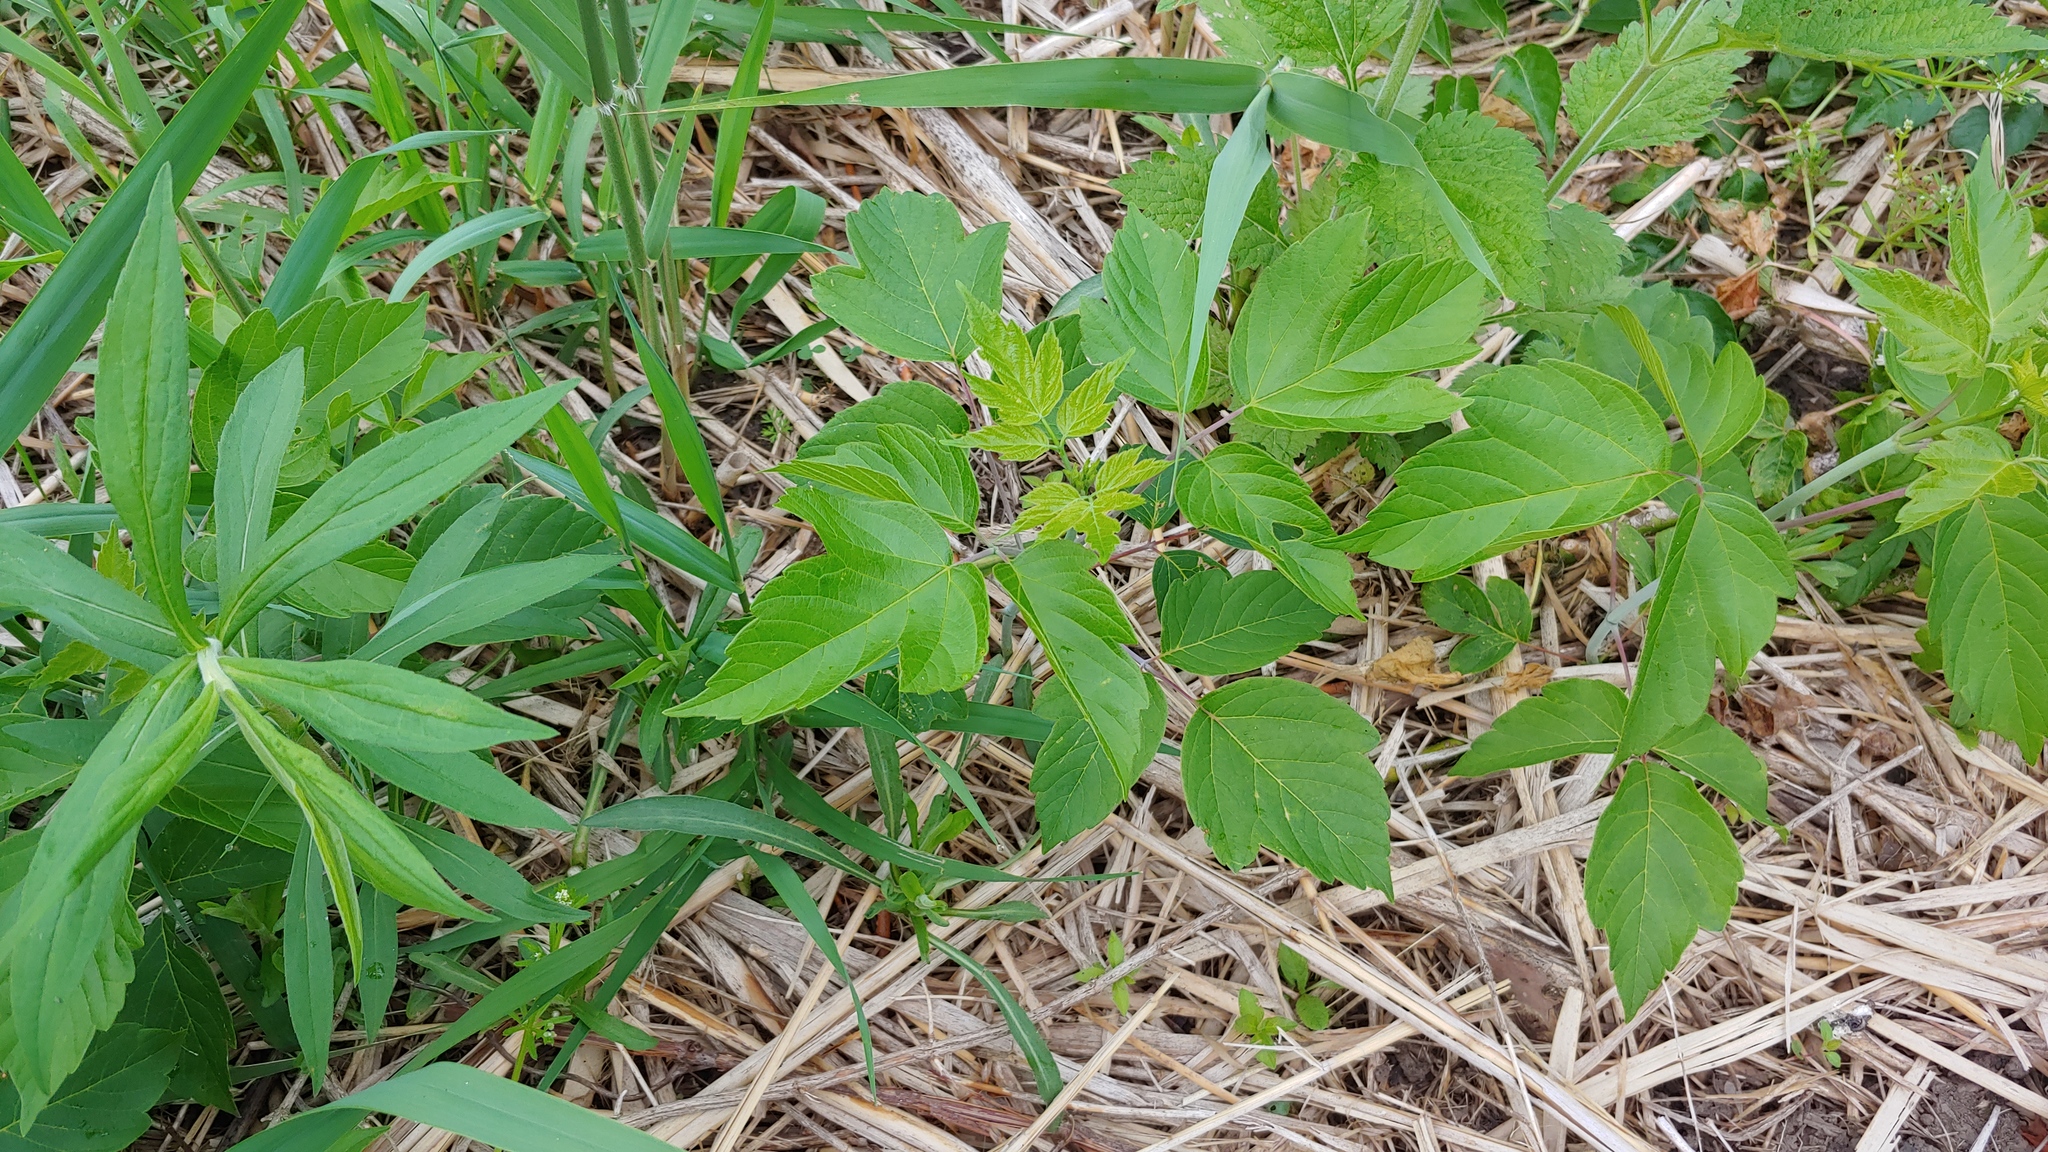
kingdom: Plantae
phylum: Tracheophyta
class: Magnoliopsida
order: Sapindales
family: Sapindaceae
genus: Acer
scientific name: Acer negundo
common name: Ashleaf maple
